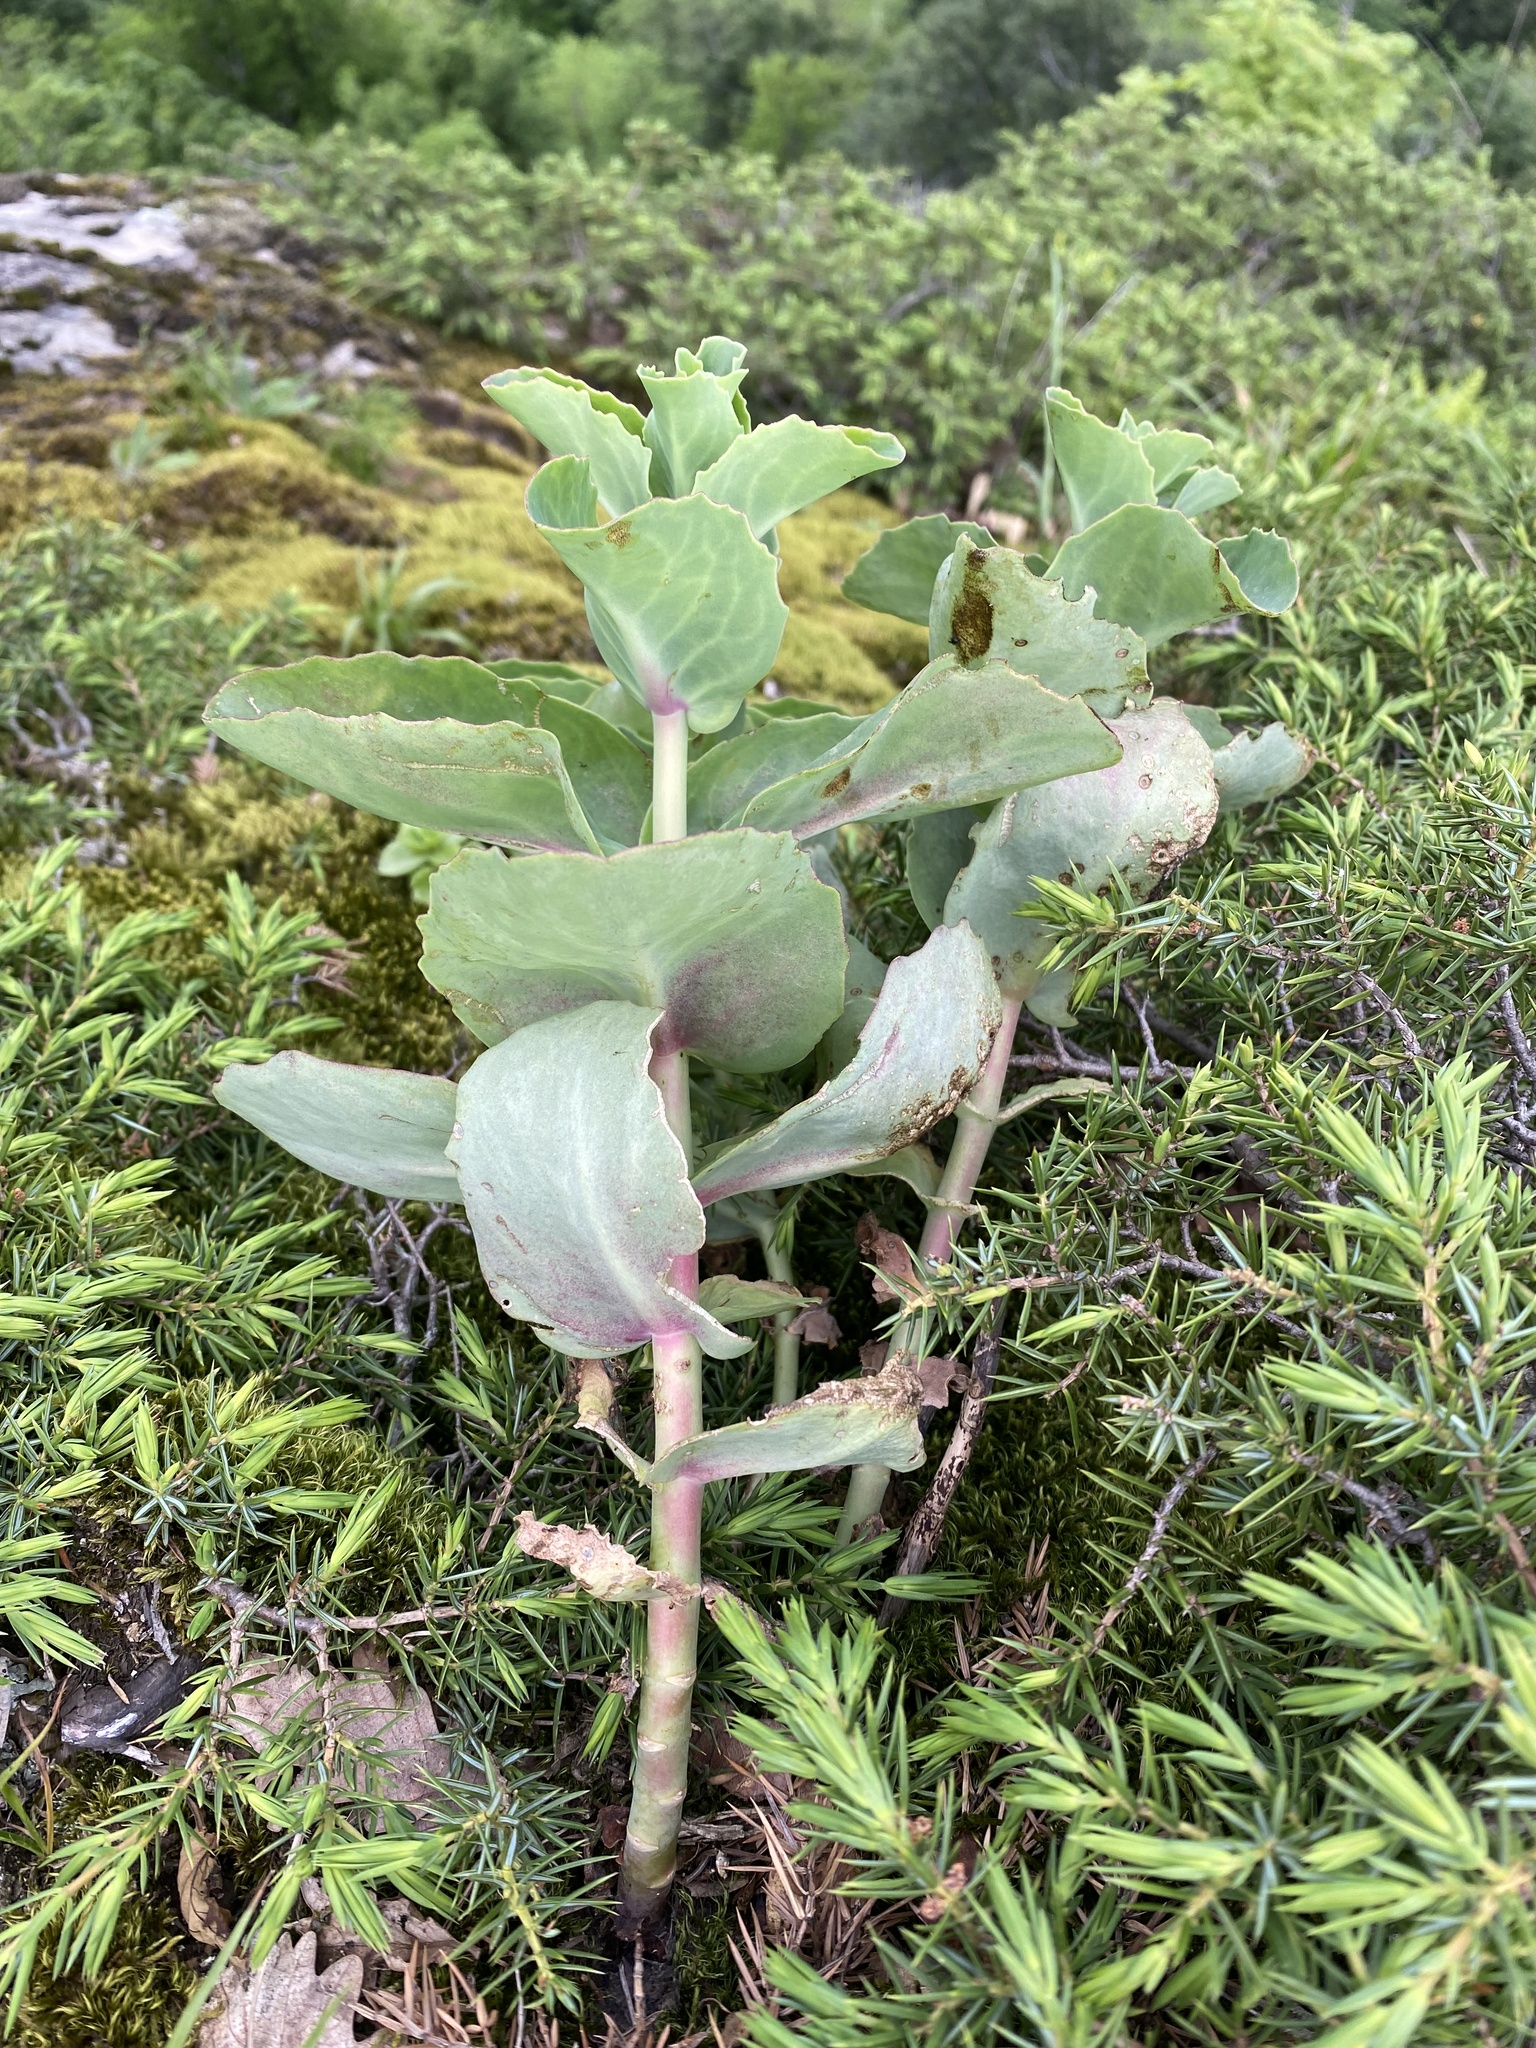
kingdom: Plantae
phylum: Tracheophyta
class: Magnoliopsida
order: Saxifragales
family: Crassulaceae
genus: Hylotelephium
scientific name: Hylotelephium maximum
